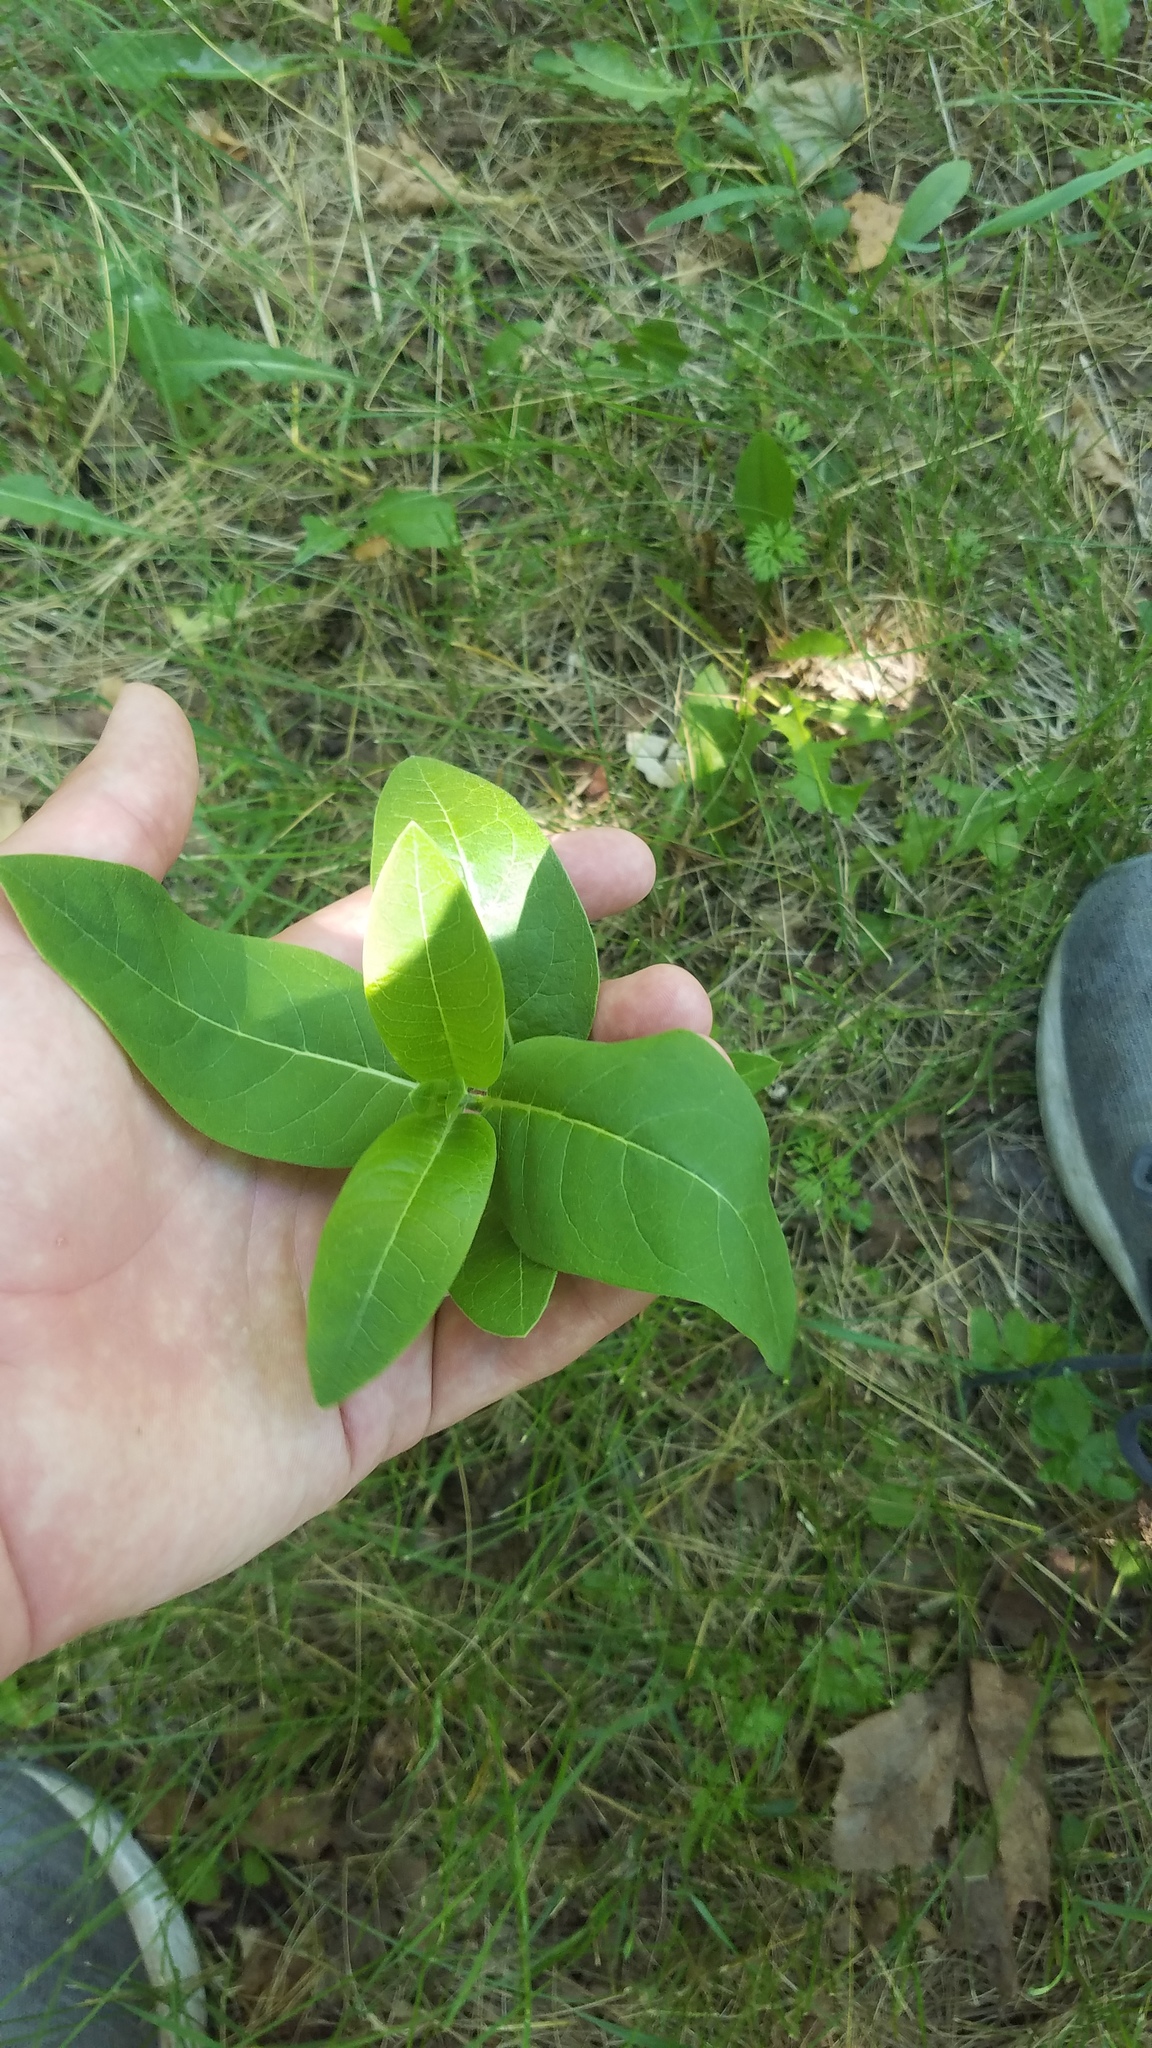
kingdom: Plantae
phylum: Tracheophyta
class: Magnoliopsida
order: Gentianales
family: Apocynaceae
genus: Asclepias
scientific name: Asclepias syriaca
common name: Common milkweed
